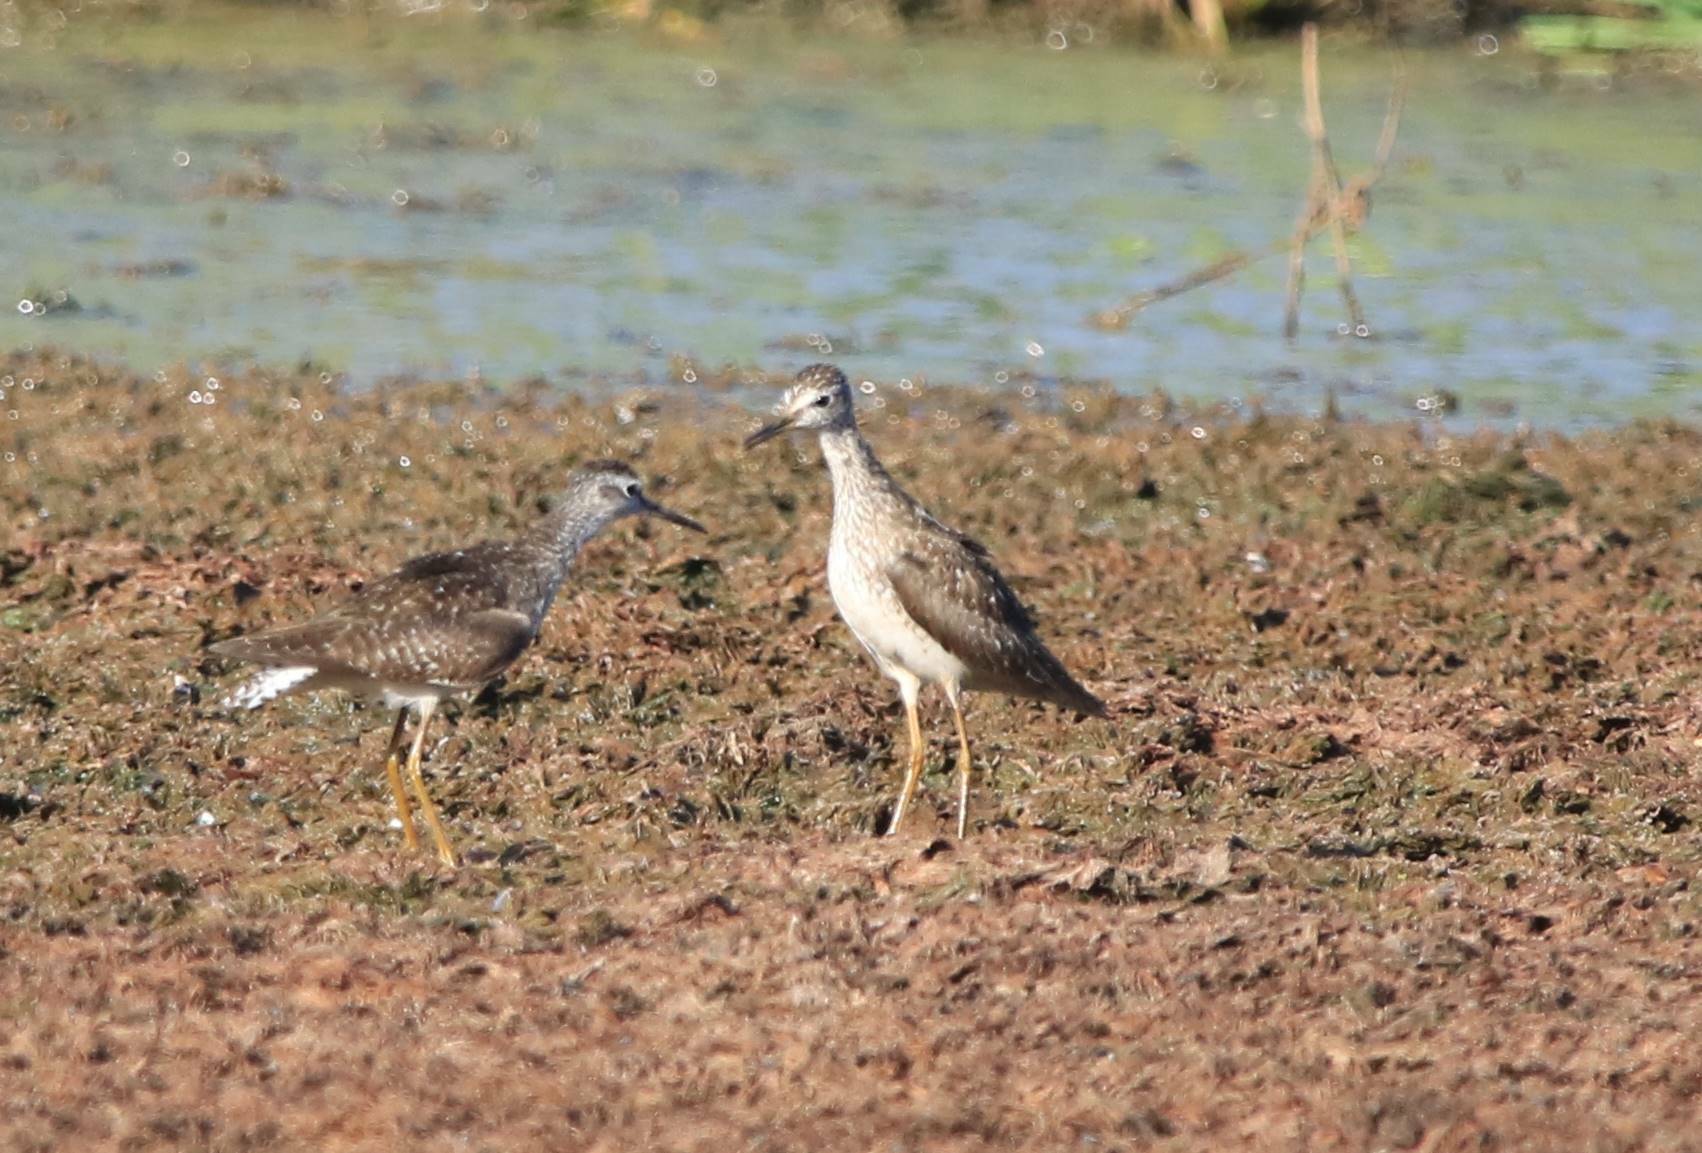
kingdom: Animalia
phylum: Chordata
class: Aves
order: Charadriiformes
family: Scolopacidae
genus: Tringa
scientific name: Tringa glareola
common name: Wood sandpiper
